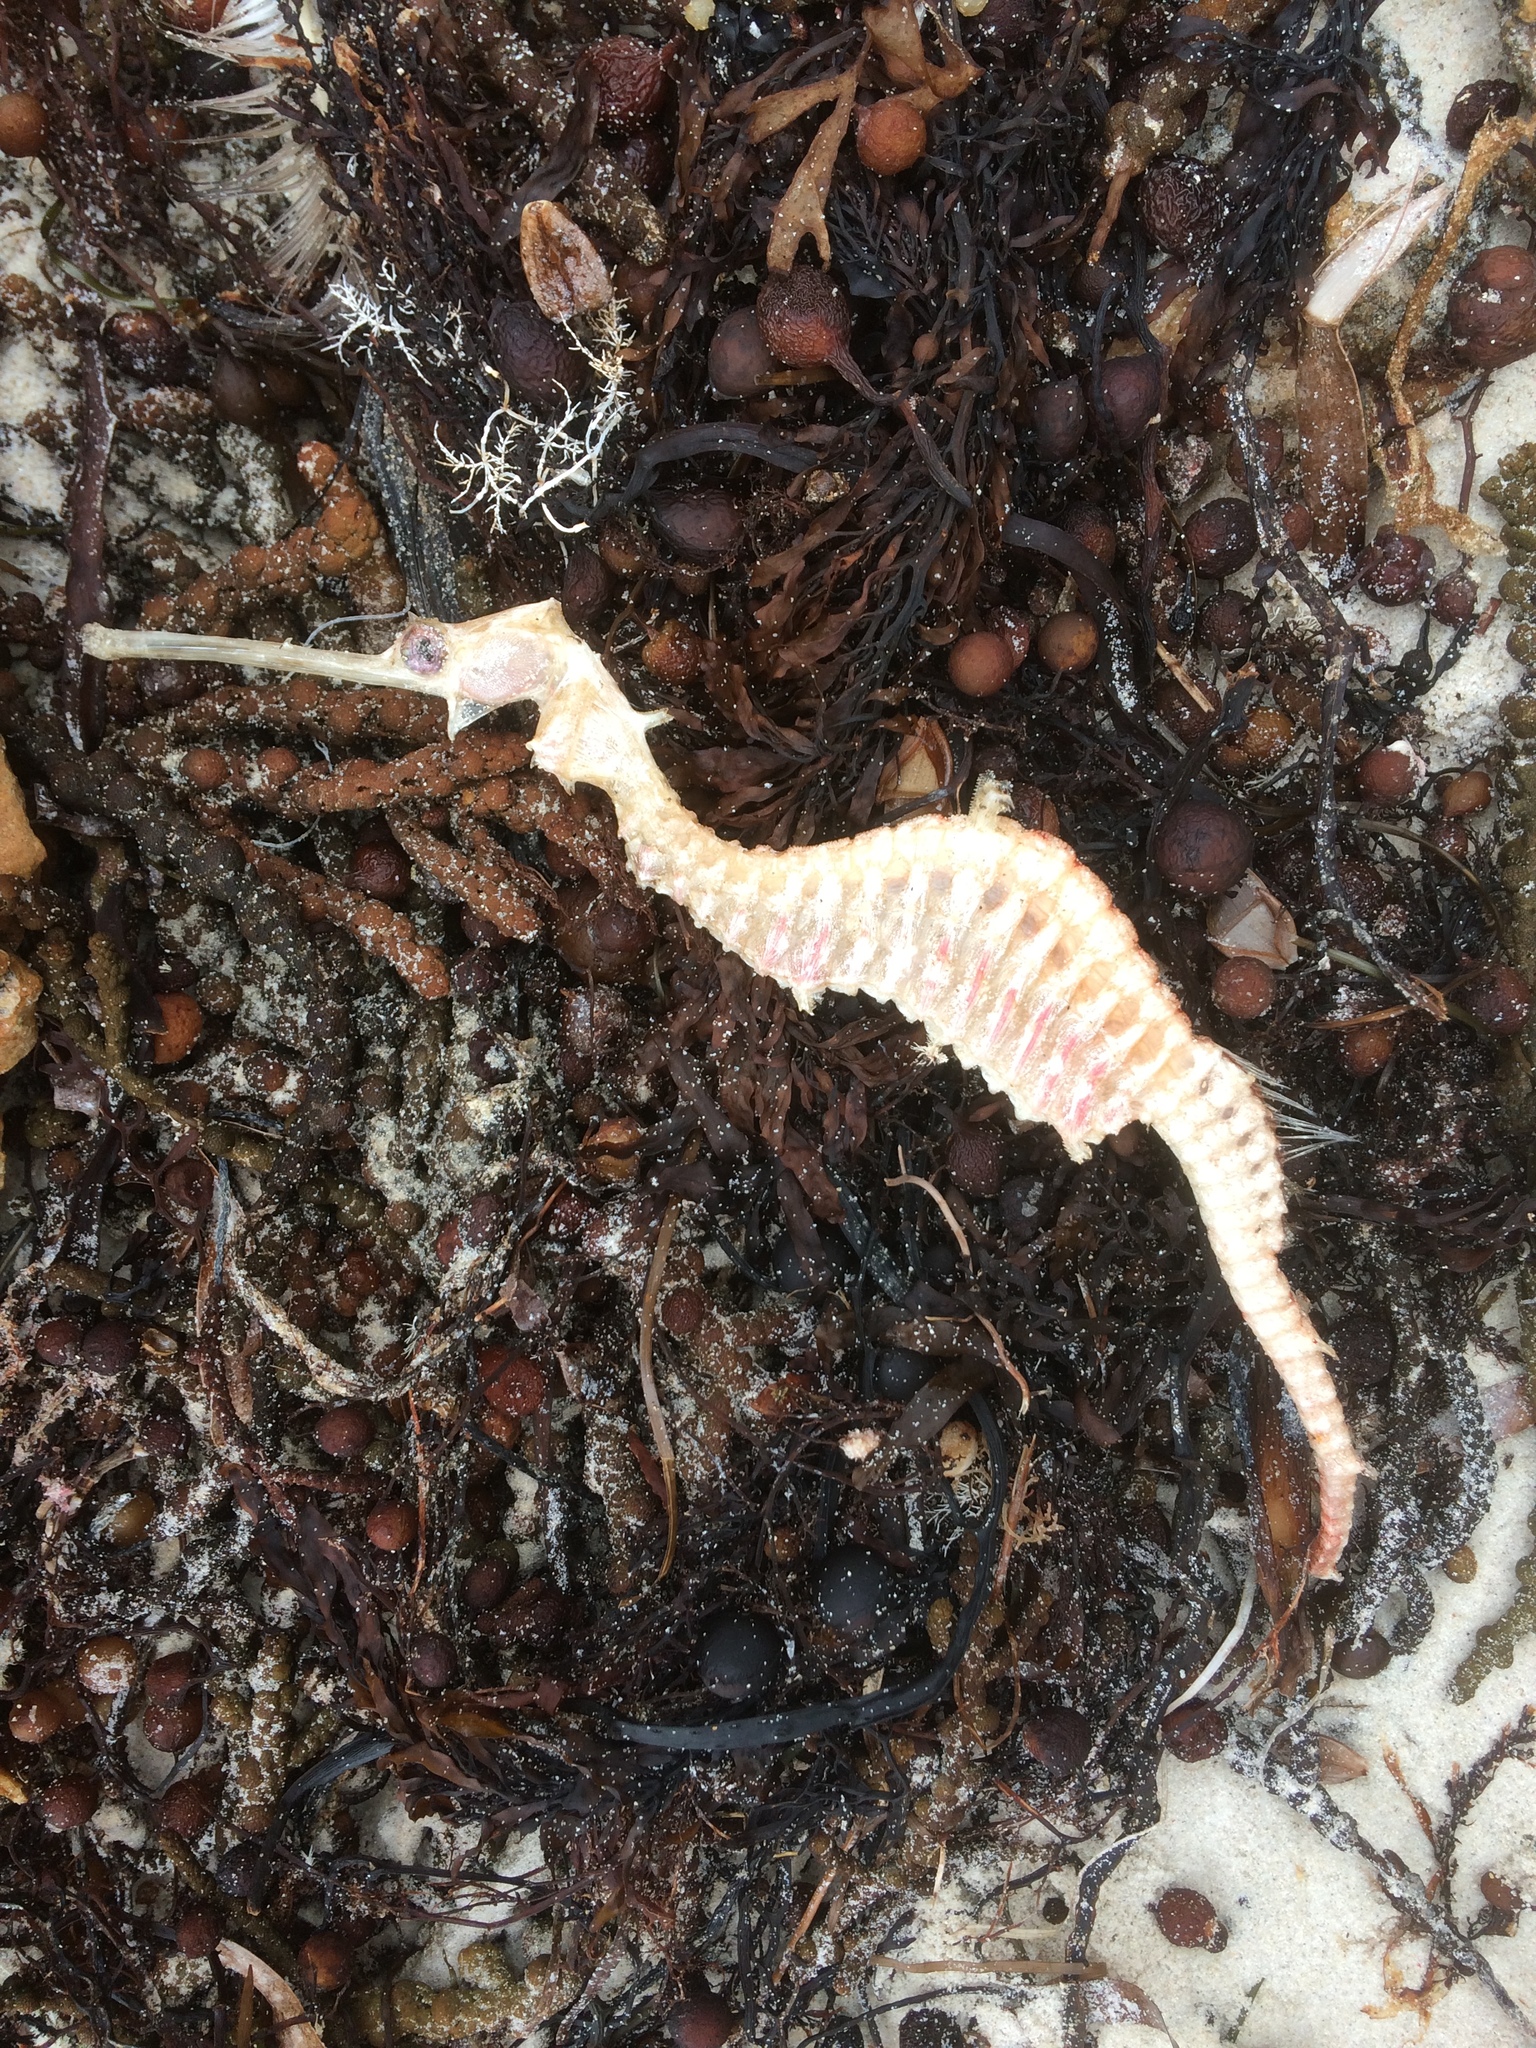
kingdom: Animalia
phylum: Chordata
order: Syngnathiformes
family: Syngnathidae
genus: Phyllopteryx
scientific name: Phyllopteryx dewysea
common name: Ruby seadragon
